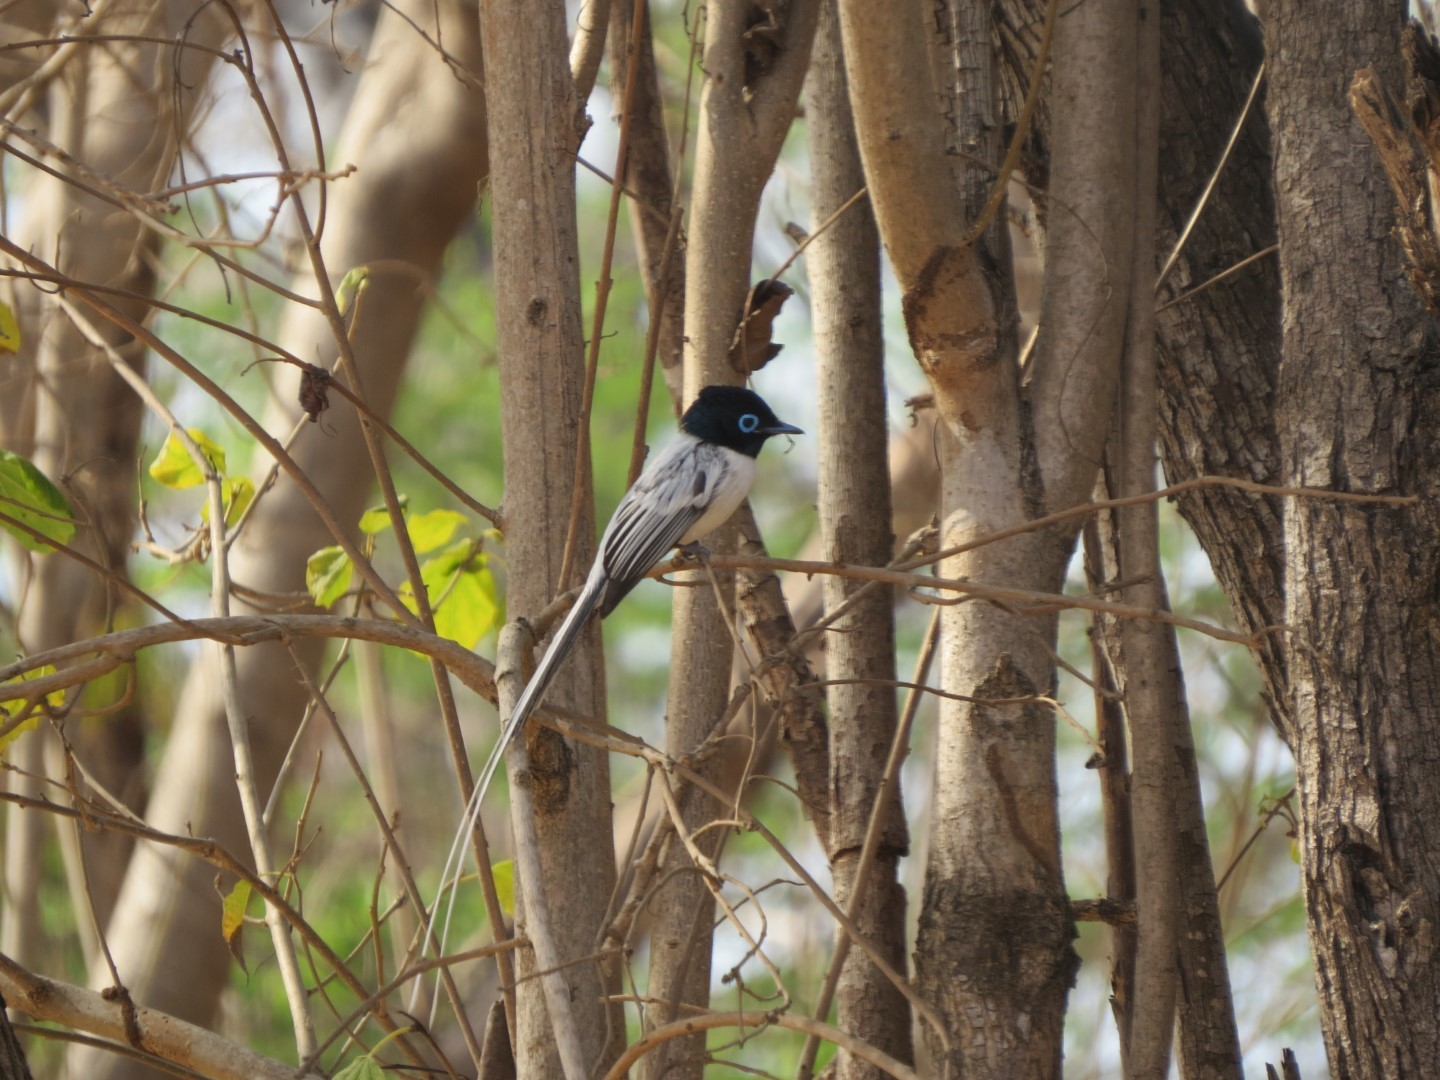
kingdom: Animalia
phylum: Chordata
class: Aves
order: Passeriformes
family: Monarchidae
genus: Terpsiphone
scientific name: Terpsiphone mutata
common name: Malagasy paradise flycatcher
